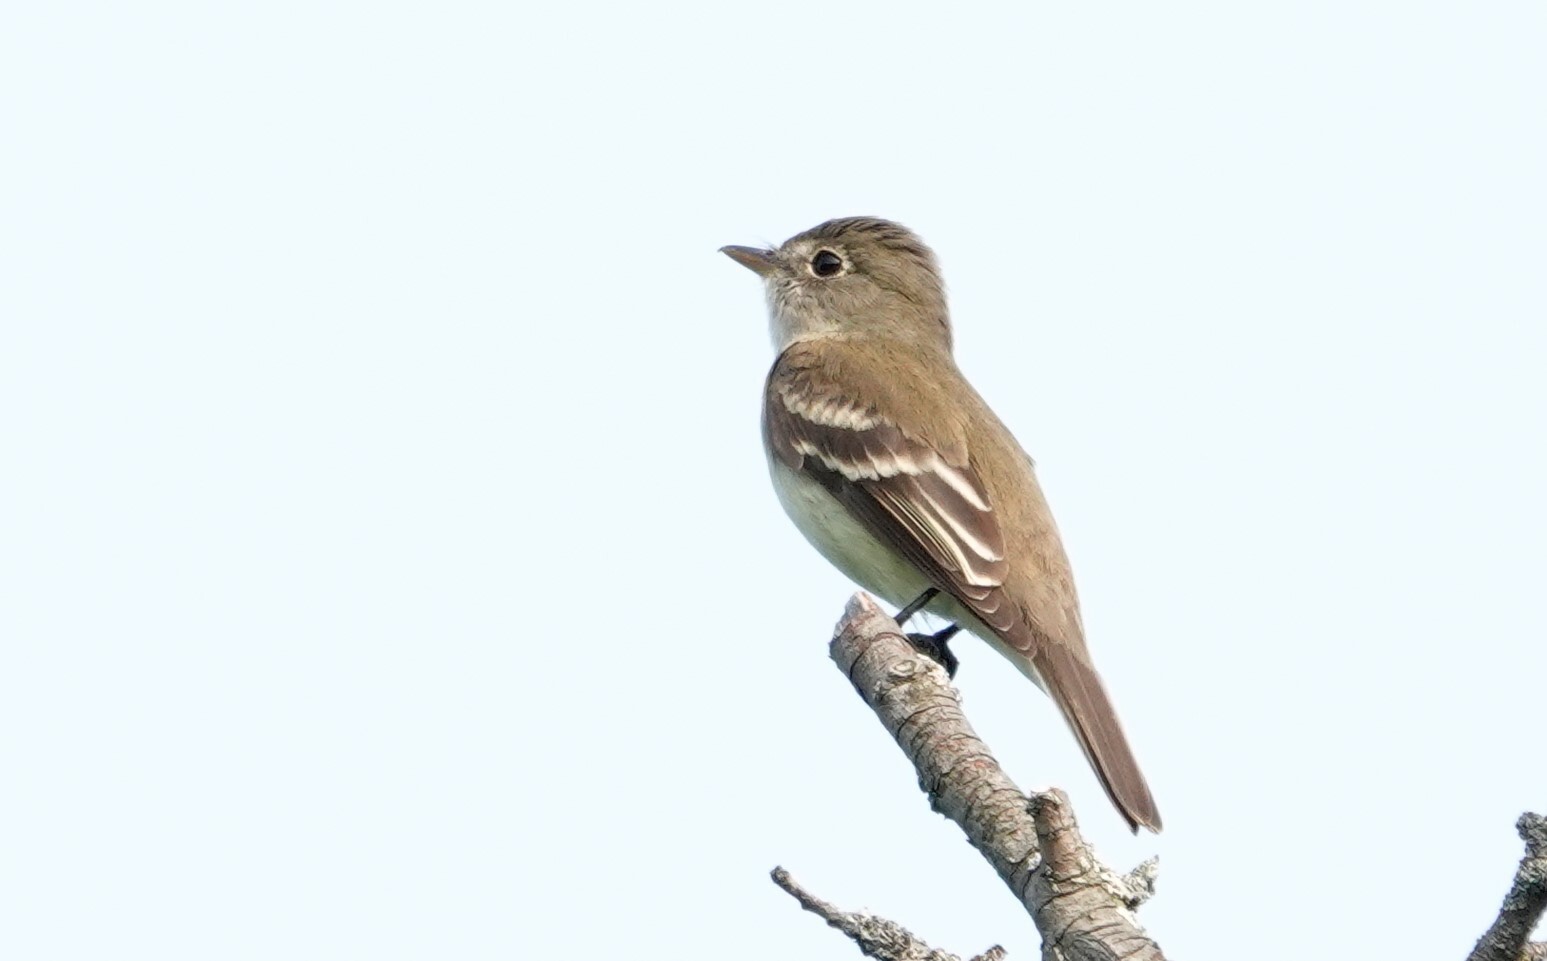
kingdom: Animalia
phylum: Chordata
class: Aves
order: Passeriformes
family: Tyrannidae
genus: Empidonax
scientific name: Empidonax alnorum
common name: Alder flycatcher
